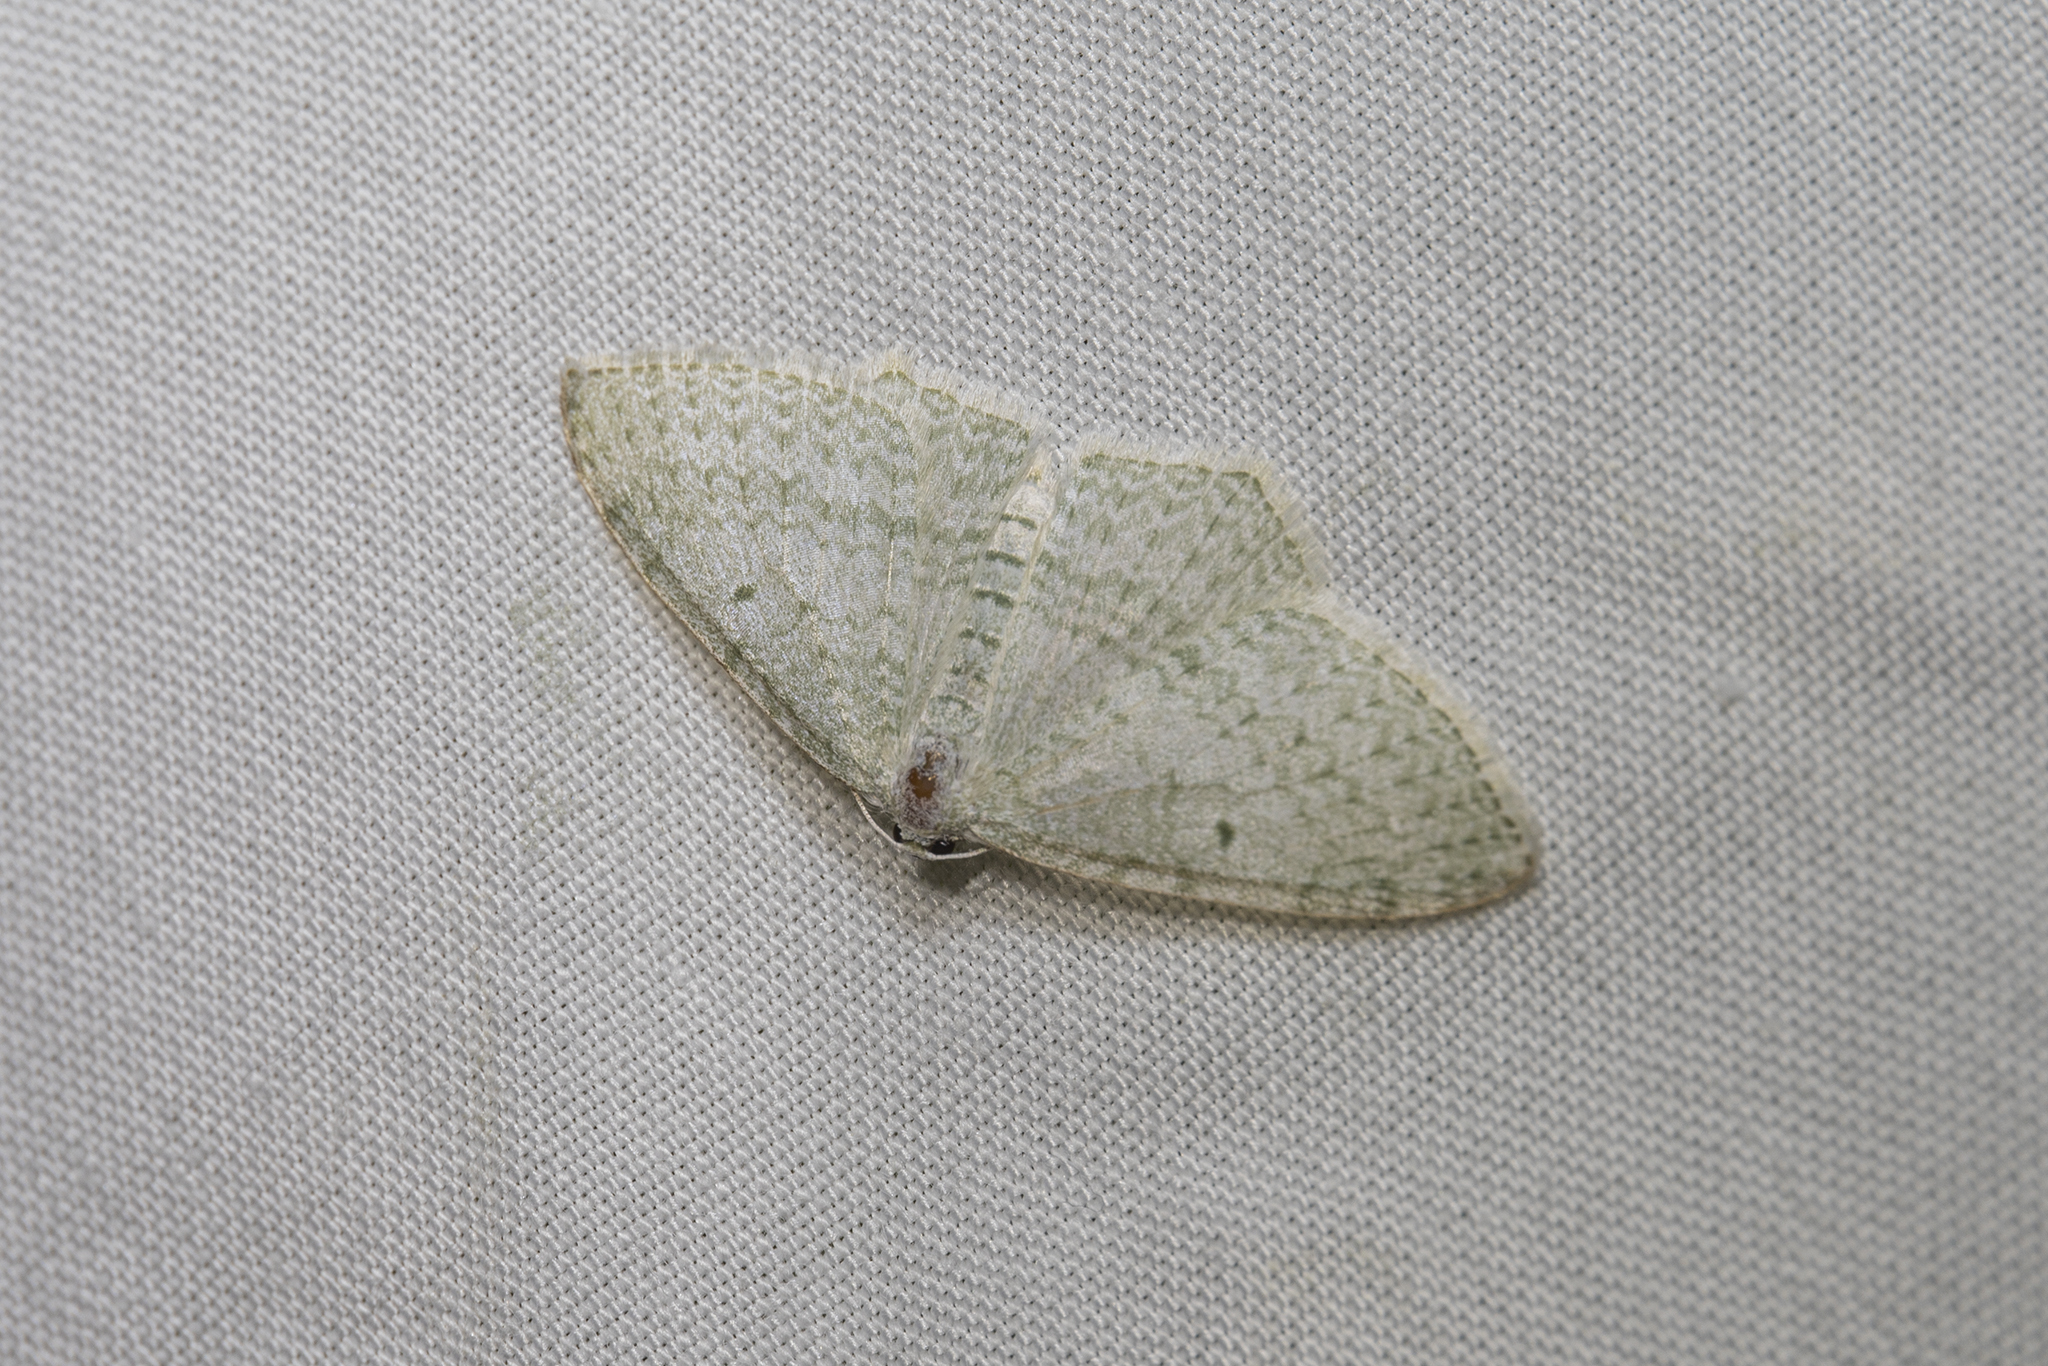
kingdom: Animalia
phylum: Arthropoda
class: Insecta
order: Lepidoptera
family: Geometridae
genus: Poecilasthena
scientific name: Poecilasthena pulchraria
